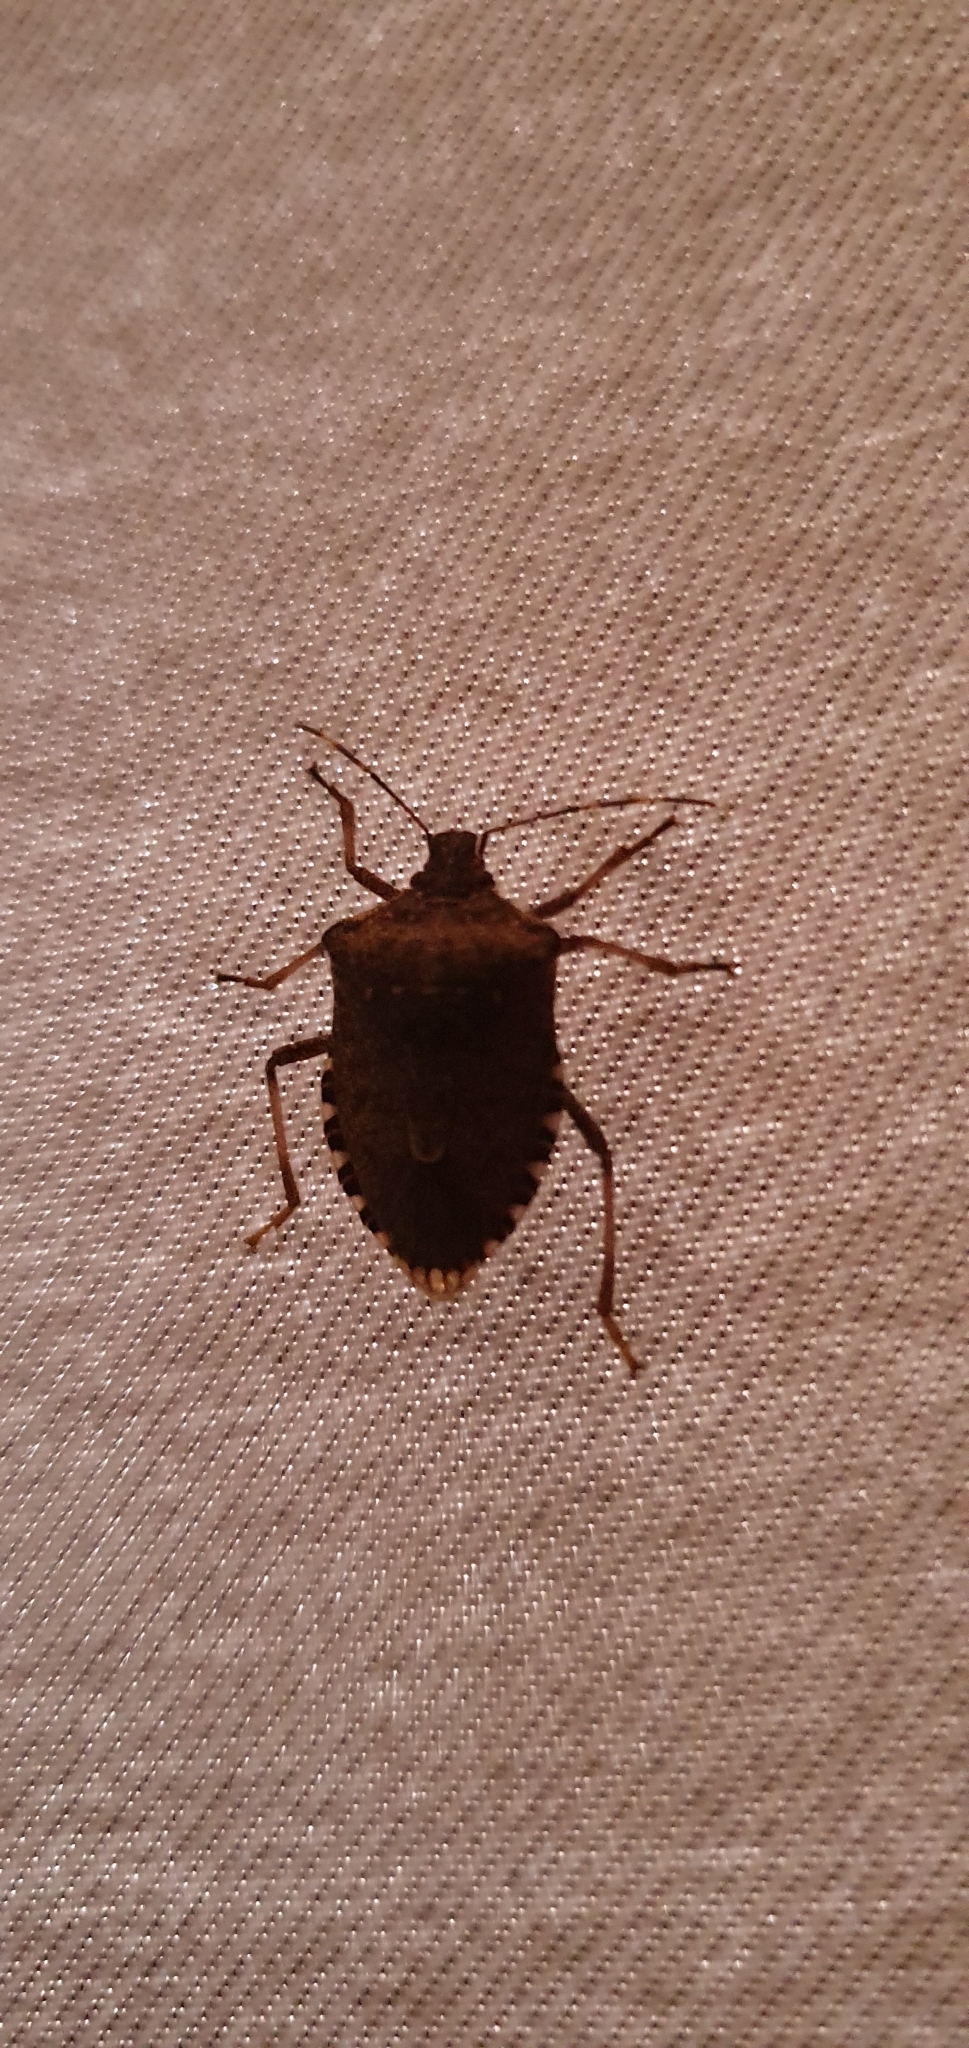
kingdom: Animalia
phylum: Arthropoda
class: Insecta
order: Hemiptera
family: Pentatomidae
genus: Halyomorpha
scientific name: Halyomorpha halys
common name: Brown marmorated stink bug
